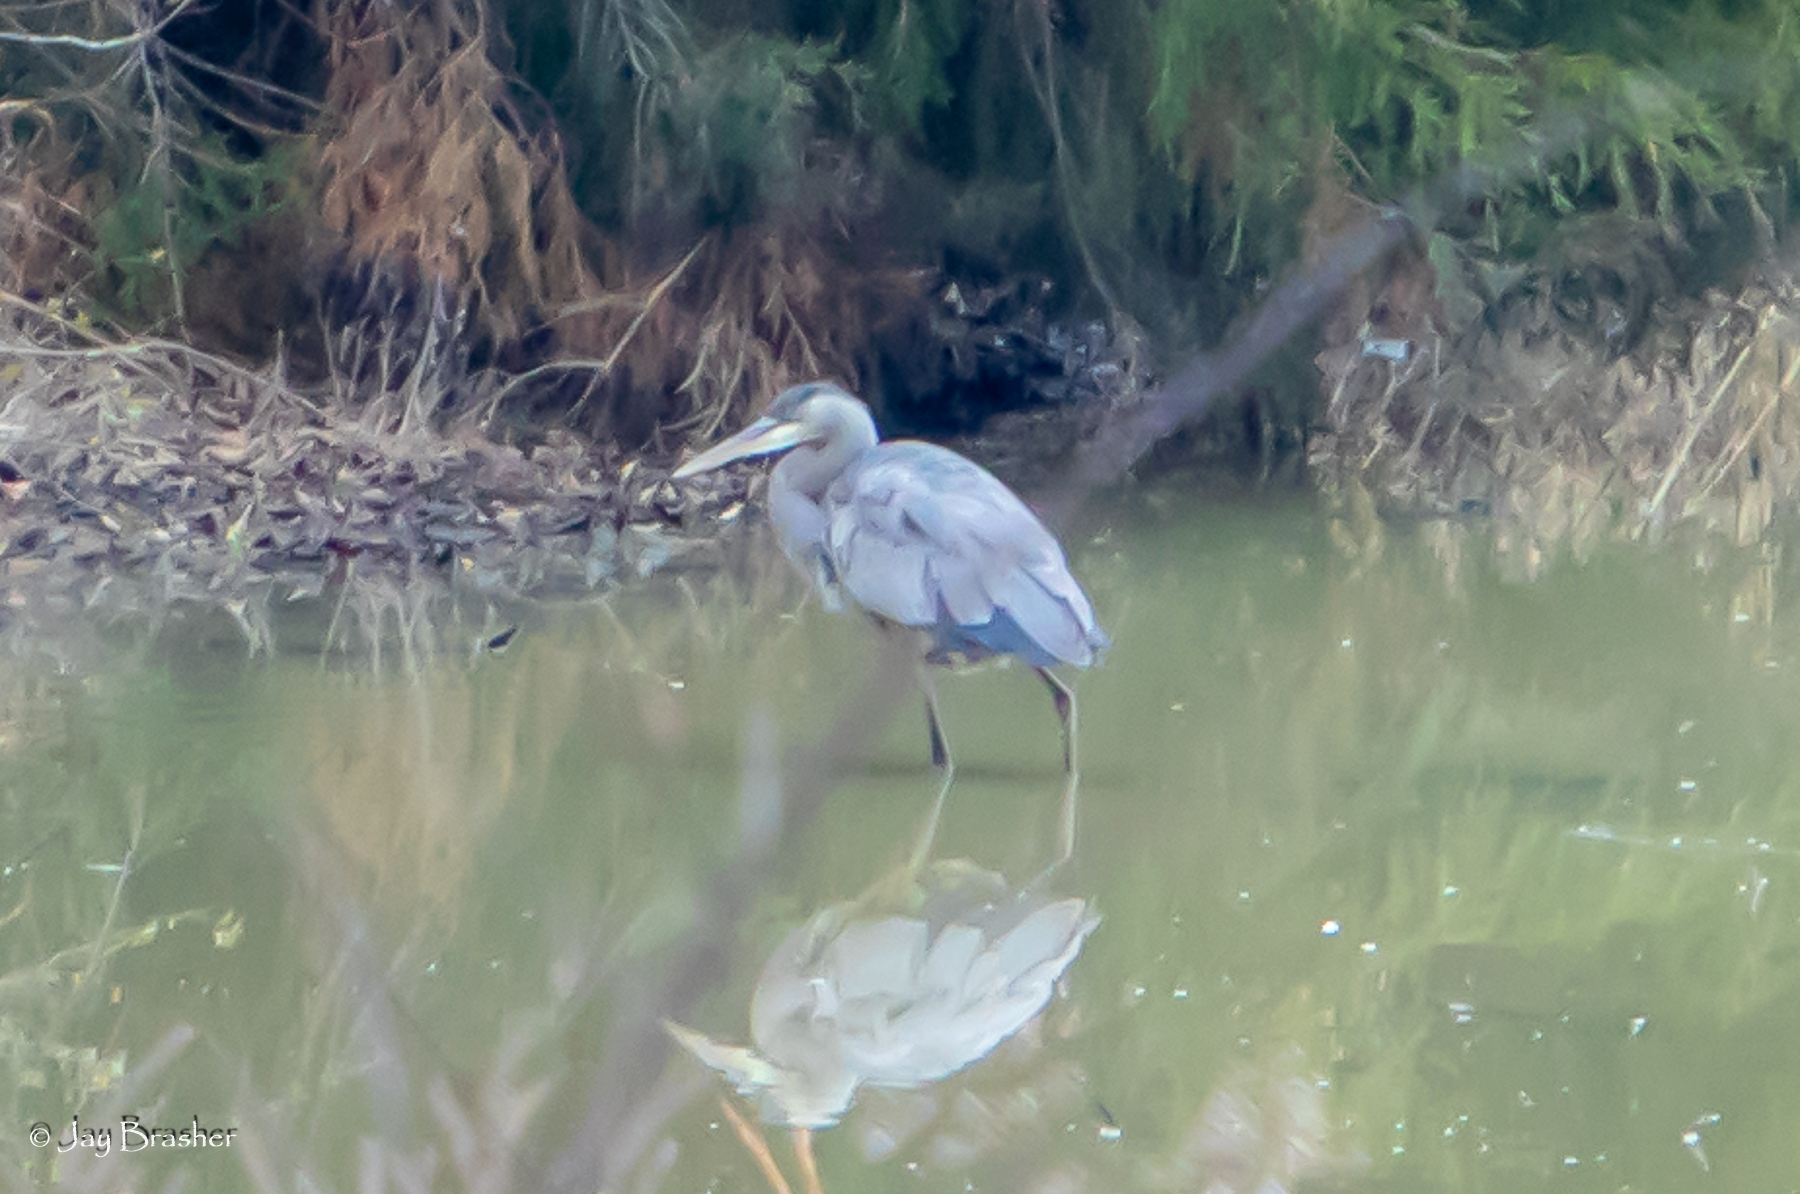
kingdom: Animalia
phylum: Chordata
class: Aves
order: Pelecaniformes
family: Ardeidae
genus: Ardea
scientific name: Ardea herodias
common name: Great blue heron
